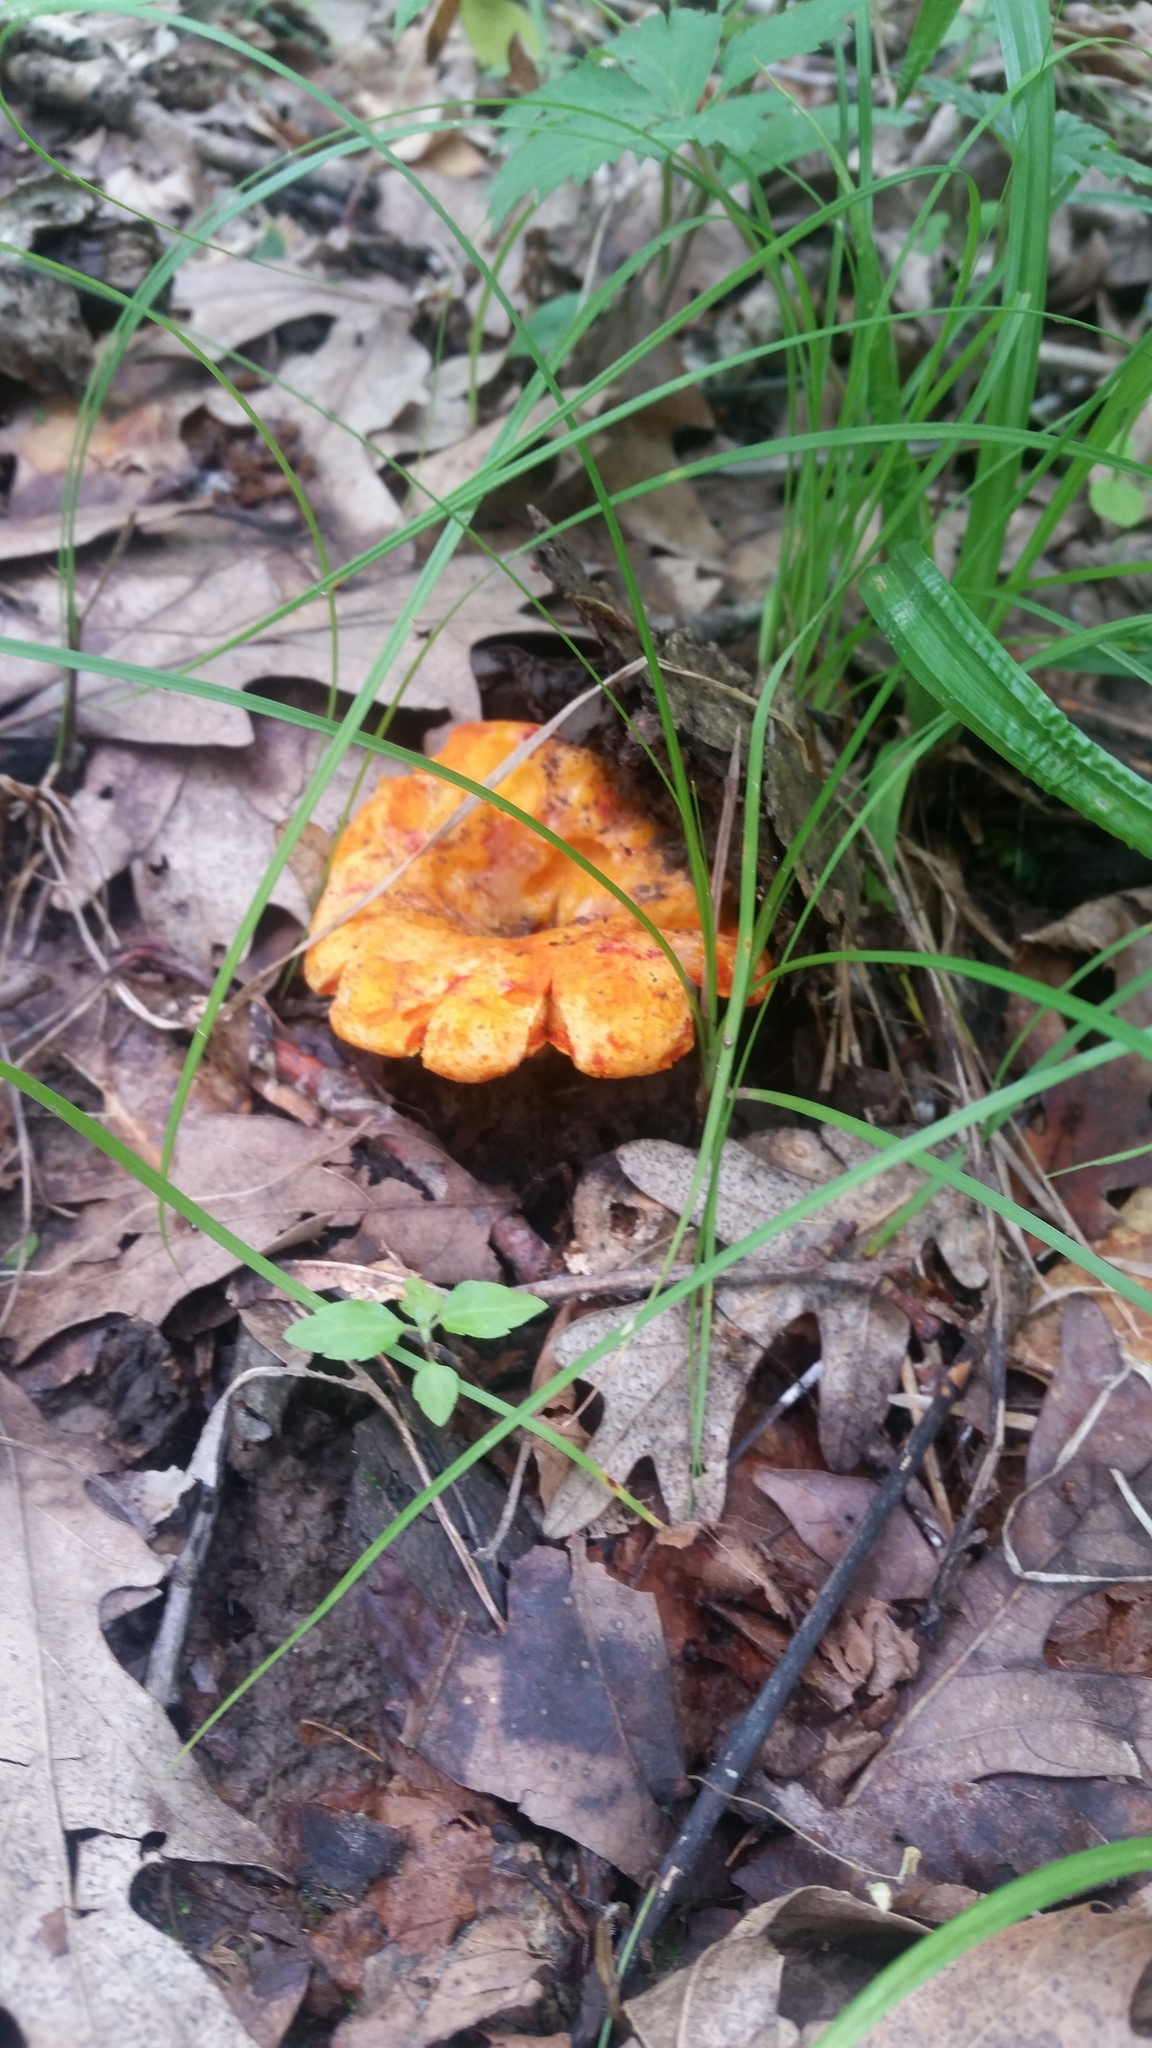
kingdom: Fungi
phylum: Ascomycota
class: Sordariomycetes
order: Hypocreales
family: Hypocreaceae
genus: Hypomyces
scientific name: Hypomyces lactifluorum
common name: Lobster mushroom
